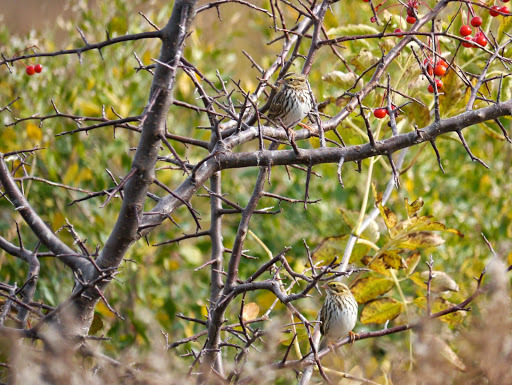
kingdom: Animalia
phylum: Chordata
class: Aves
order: Passeriformes
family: Passerellidae
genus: Passerculus
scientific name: Passerculus sandwichensis
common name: Savannah sparrow
